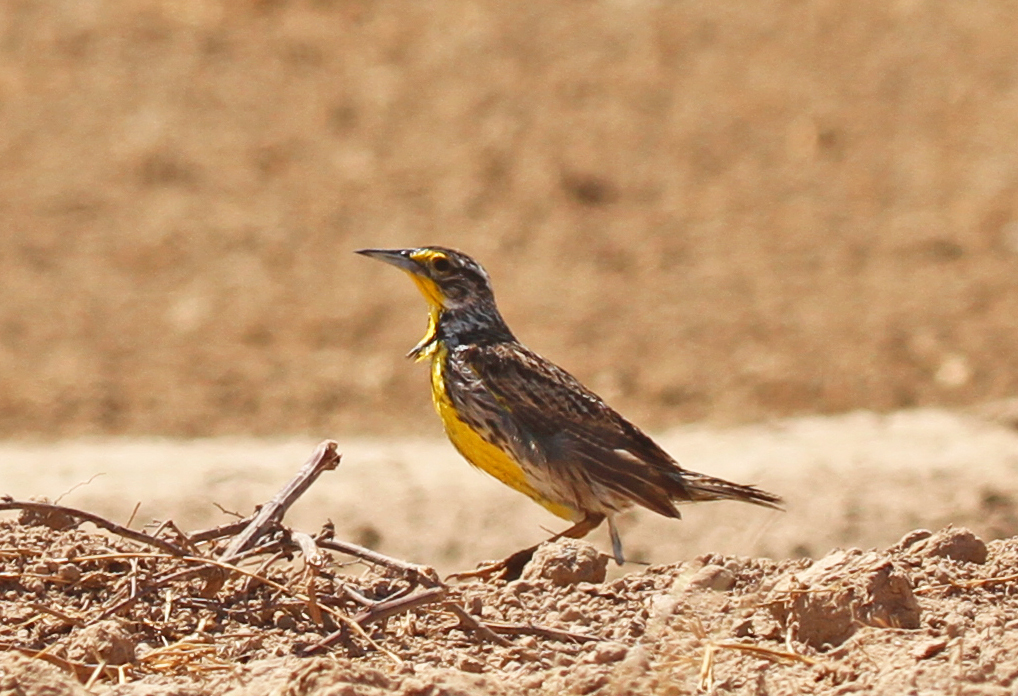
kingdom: Animalia
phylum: Chordata
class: Aves
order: Passeriformes
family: Icteridae
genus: Sturnella
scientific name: Sturnella neglecta
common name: Western meadowlark
